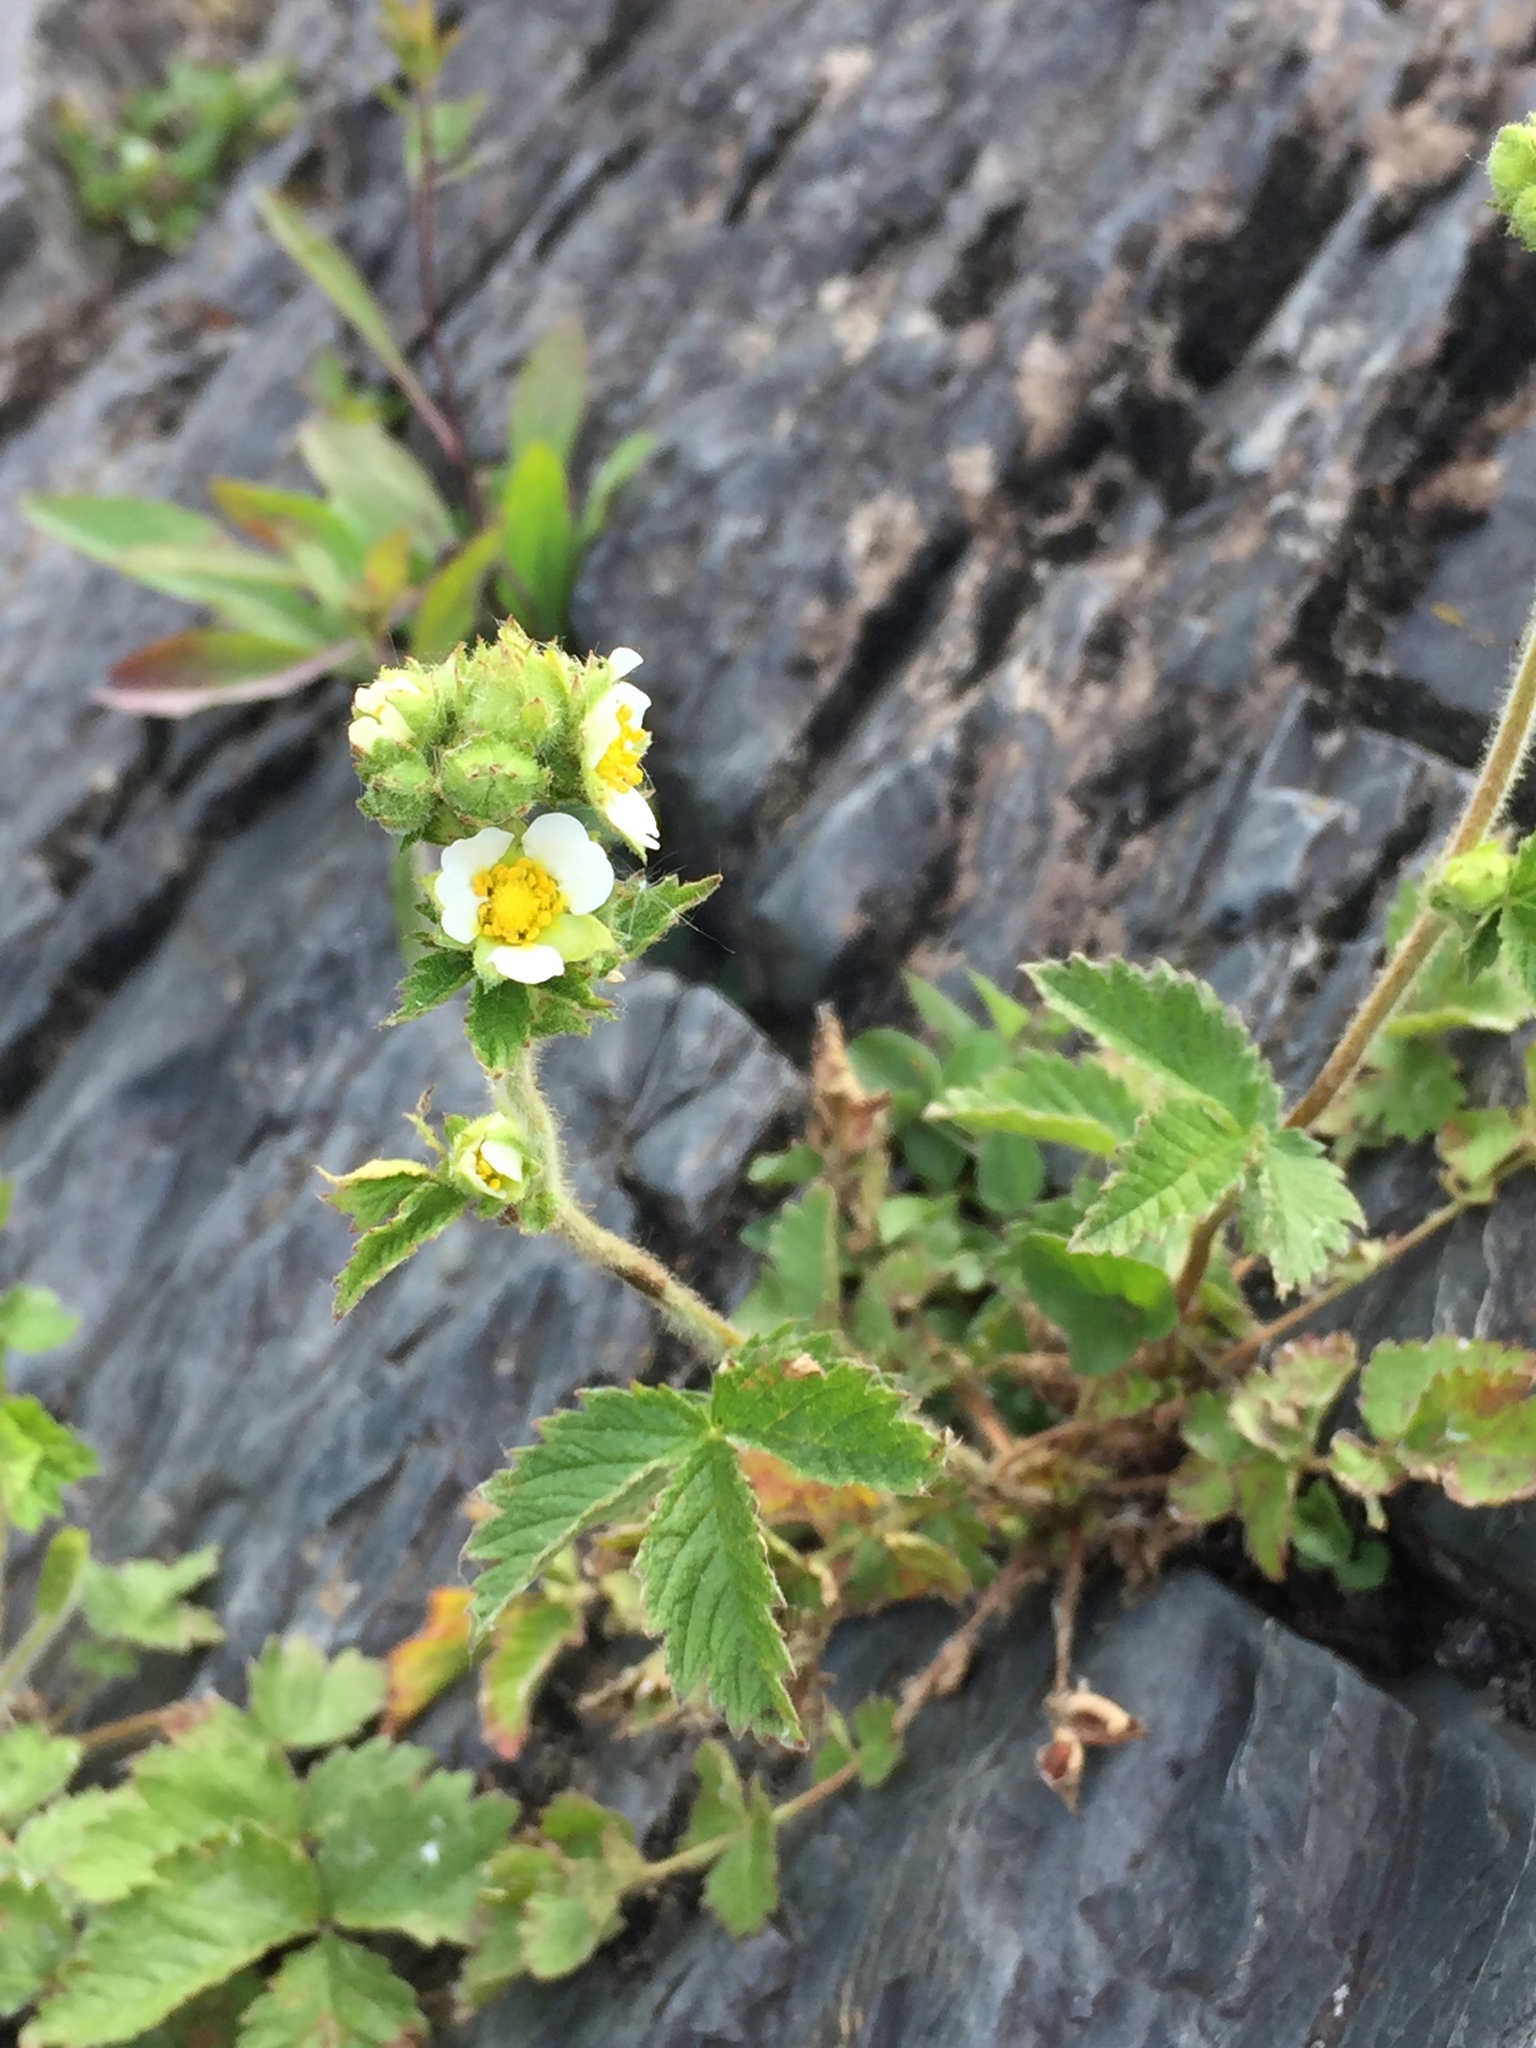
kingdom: Plantae
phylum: Tracheophyta
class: Magnoliopsida
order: Rosales
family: Rosaceae
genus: Drymocallis
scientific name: Drymocallis arguta
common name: Tall cinquefoil
